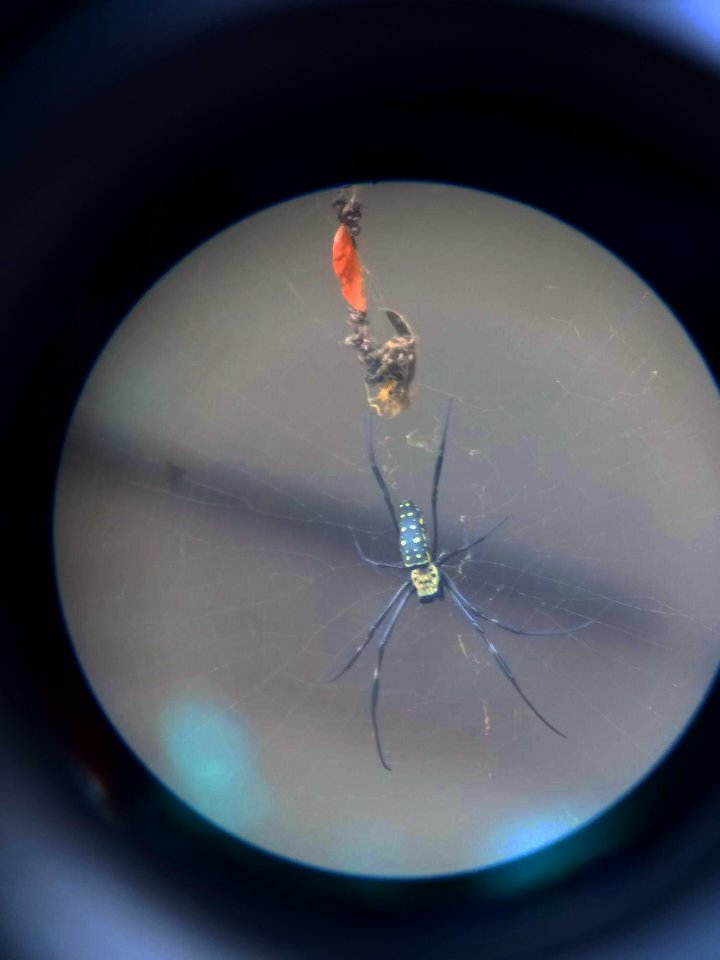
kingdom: Animalia
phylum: Arthropoda
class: Arachnida
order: Araneae
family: Araneidae
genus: Trichonephila
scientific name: Trichonephila antipodiana
